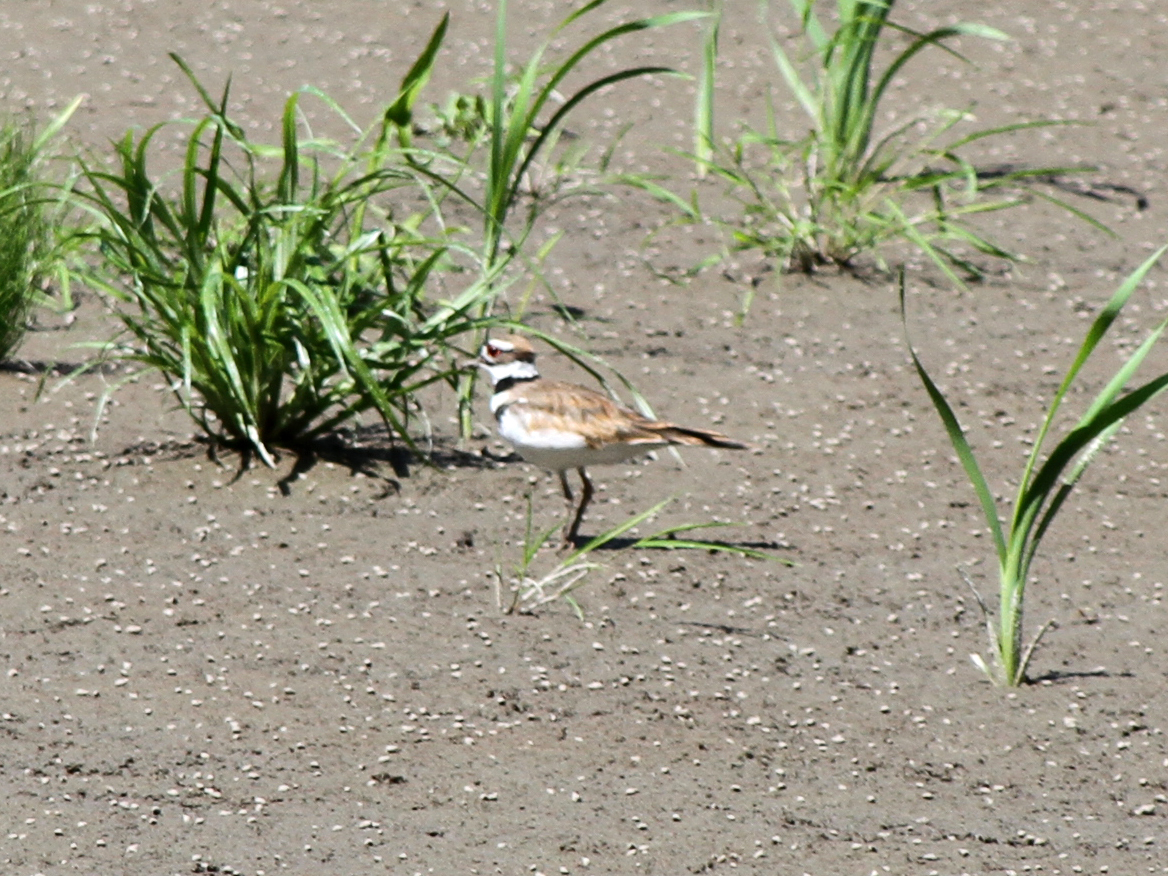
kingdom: Animalia
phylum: Chordata
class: Aves
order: Charadriiformes
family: Charadriidae
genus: Charadrius
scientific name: Charadrius vociferus
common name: Killdeer
